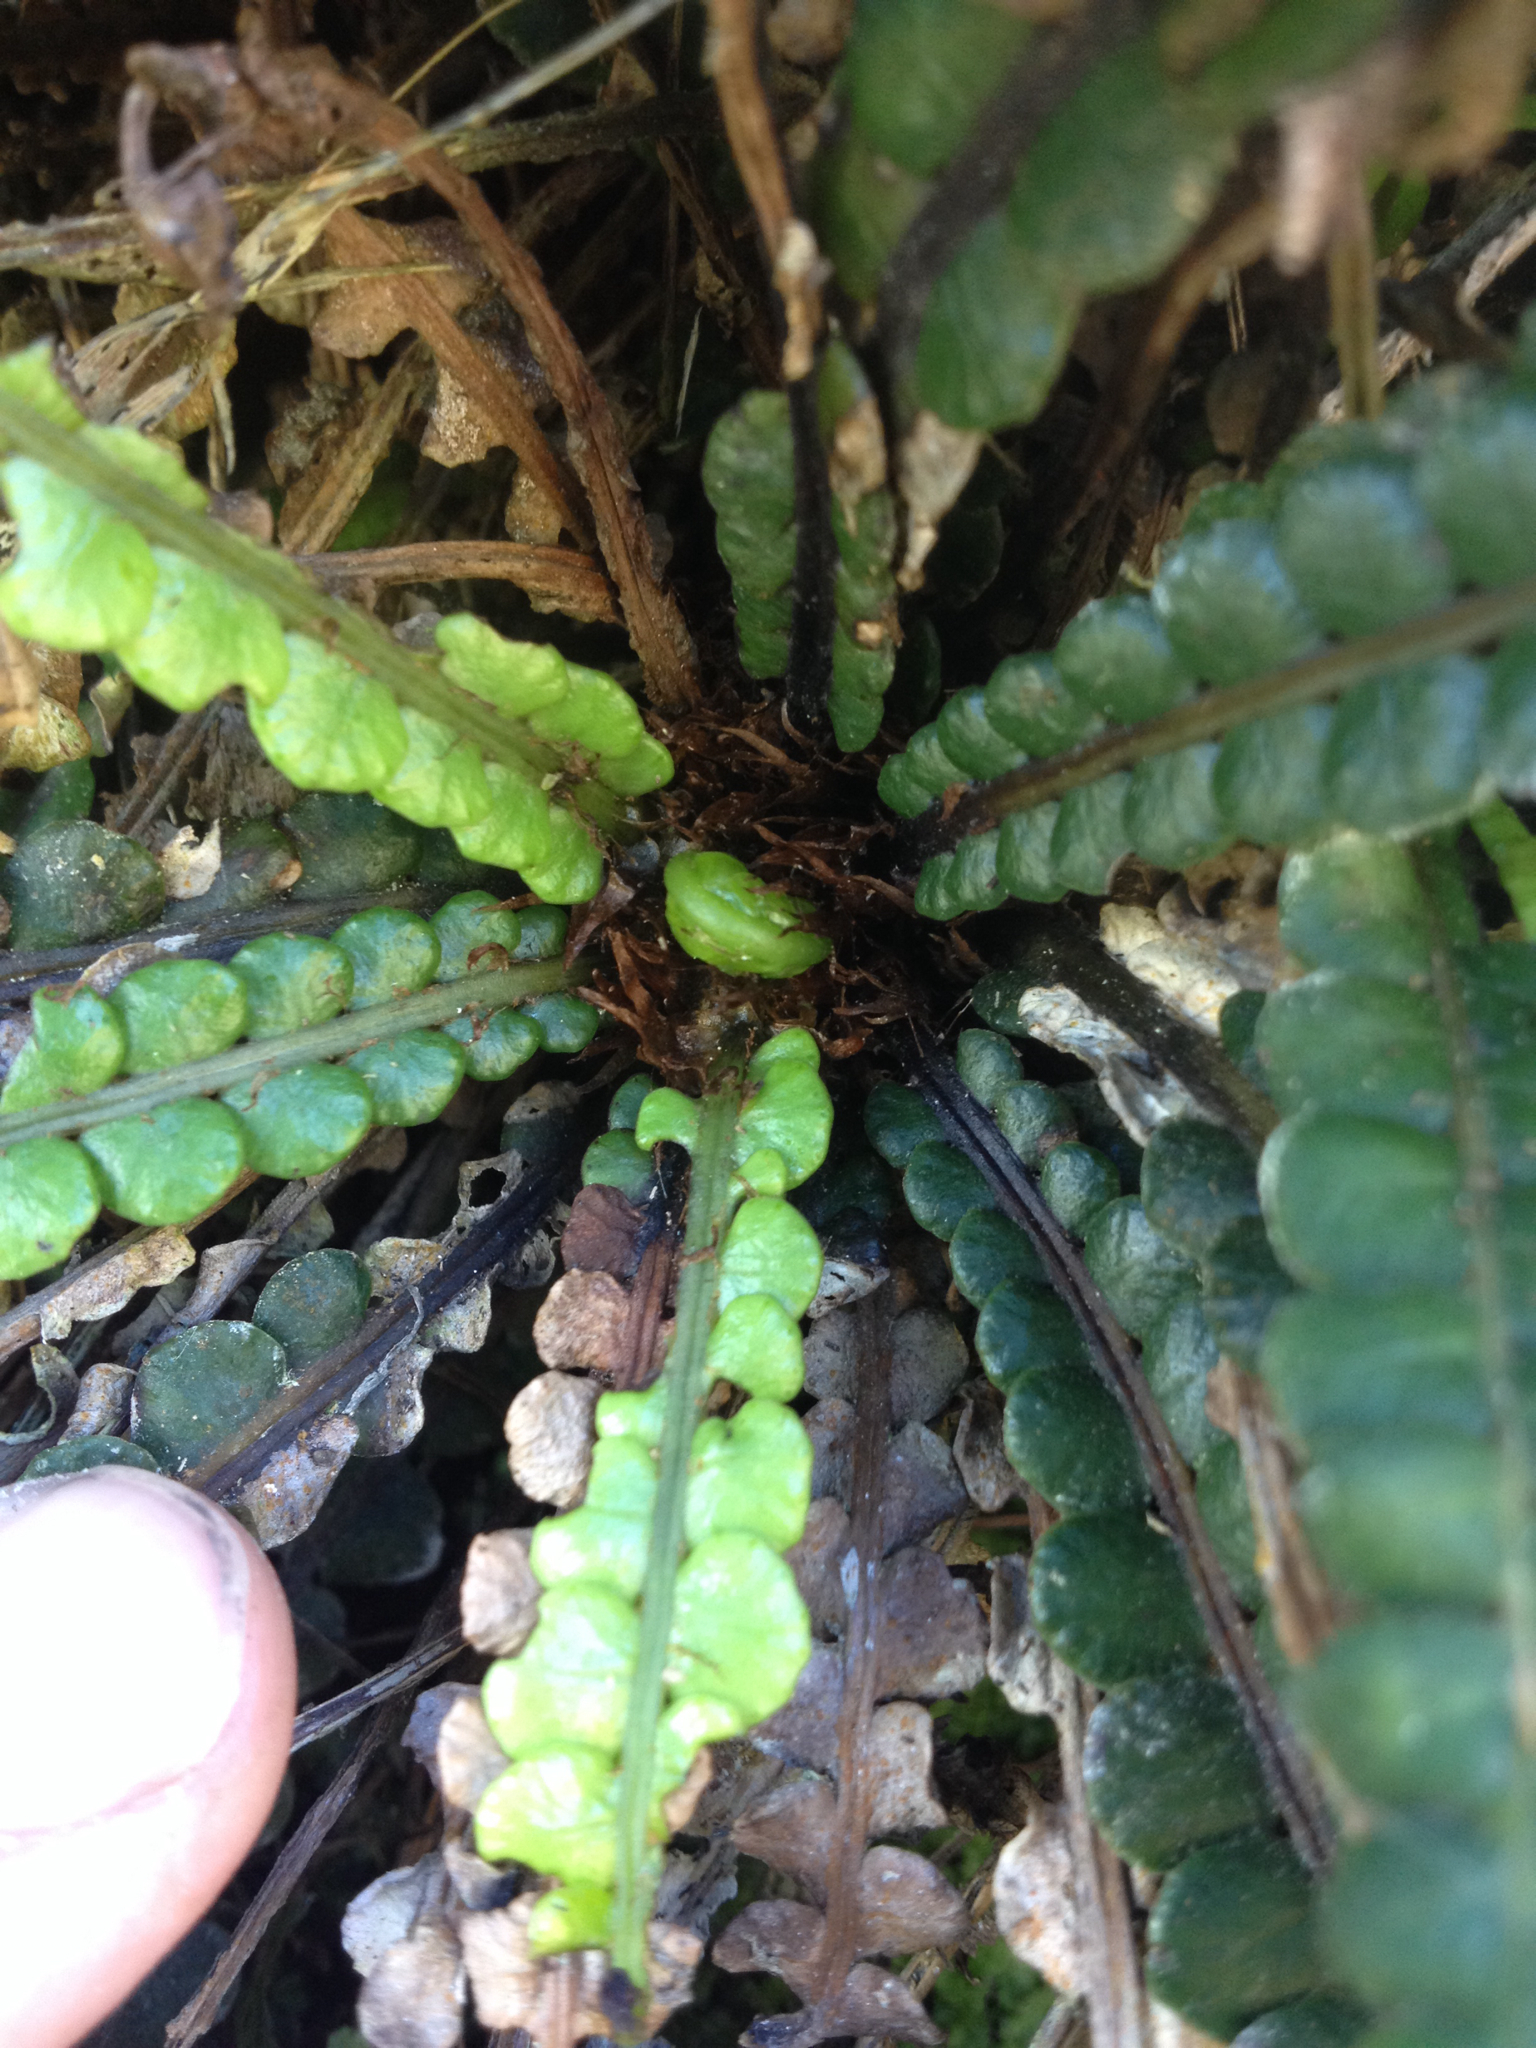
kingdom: Plantae
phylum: Tracheophyta
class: Polypodiopsida
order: Polypodiales
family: Blechnaceae
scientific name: Blechnaceae
